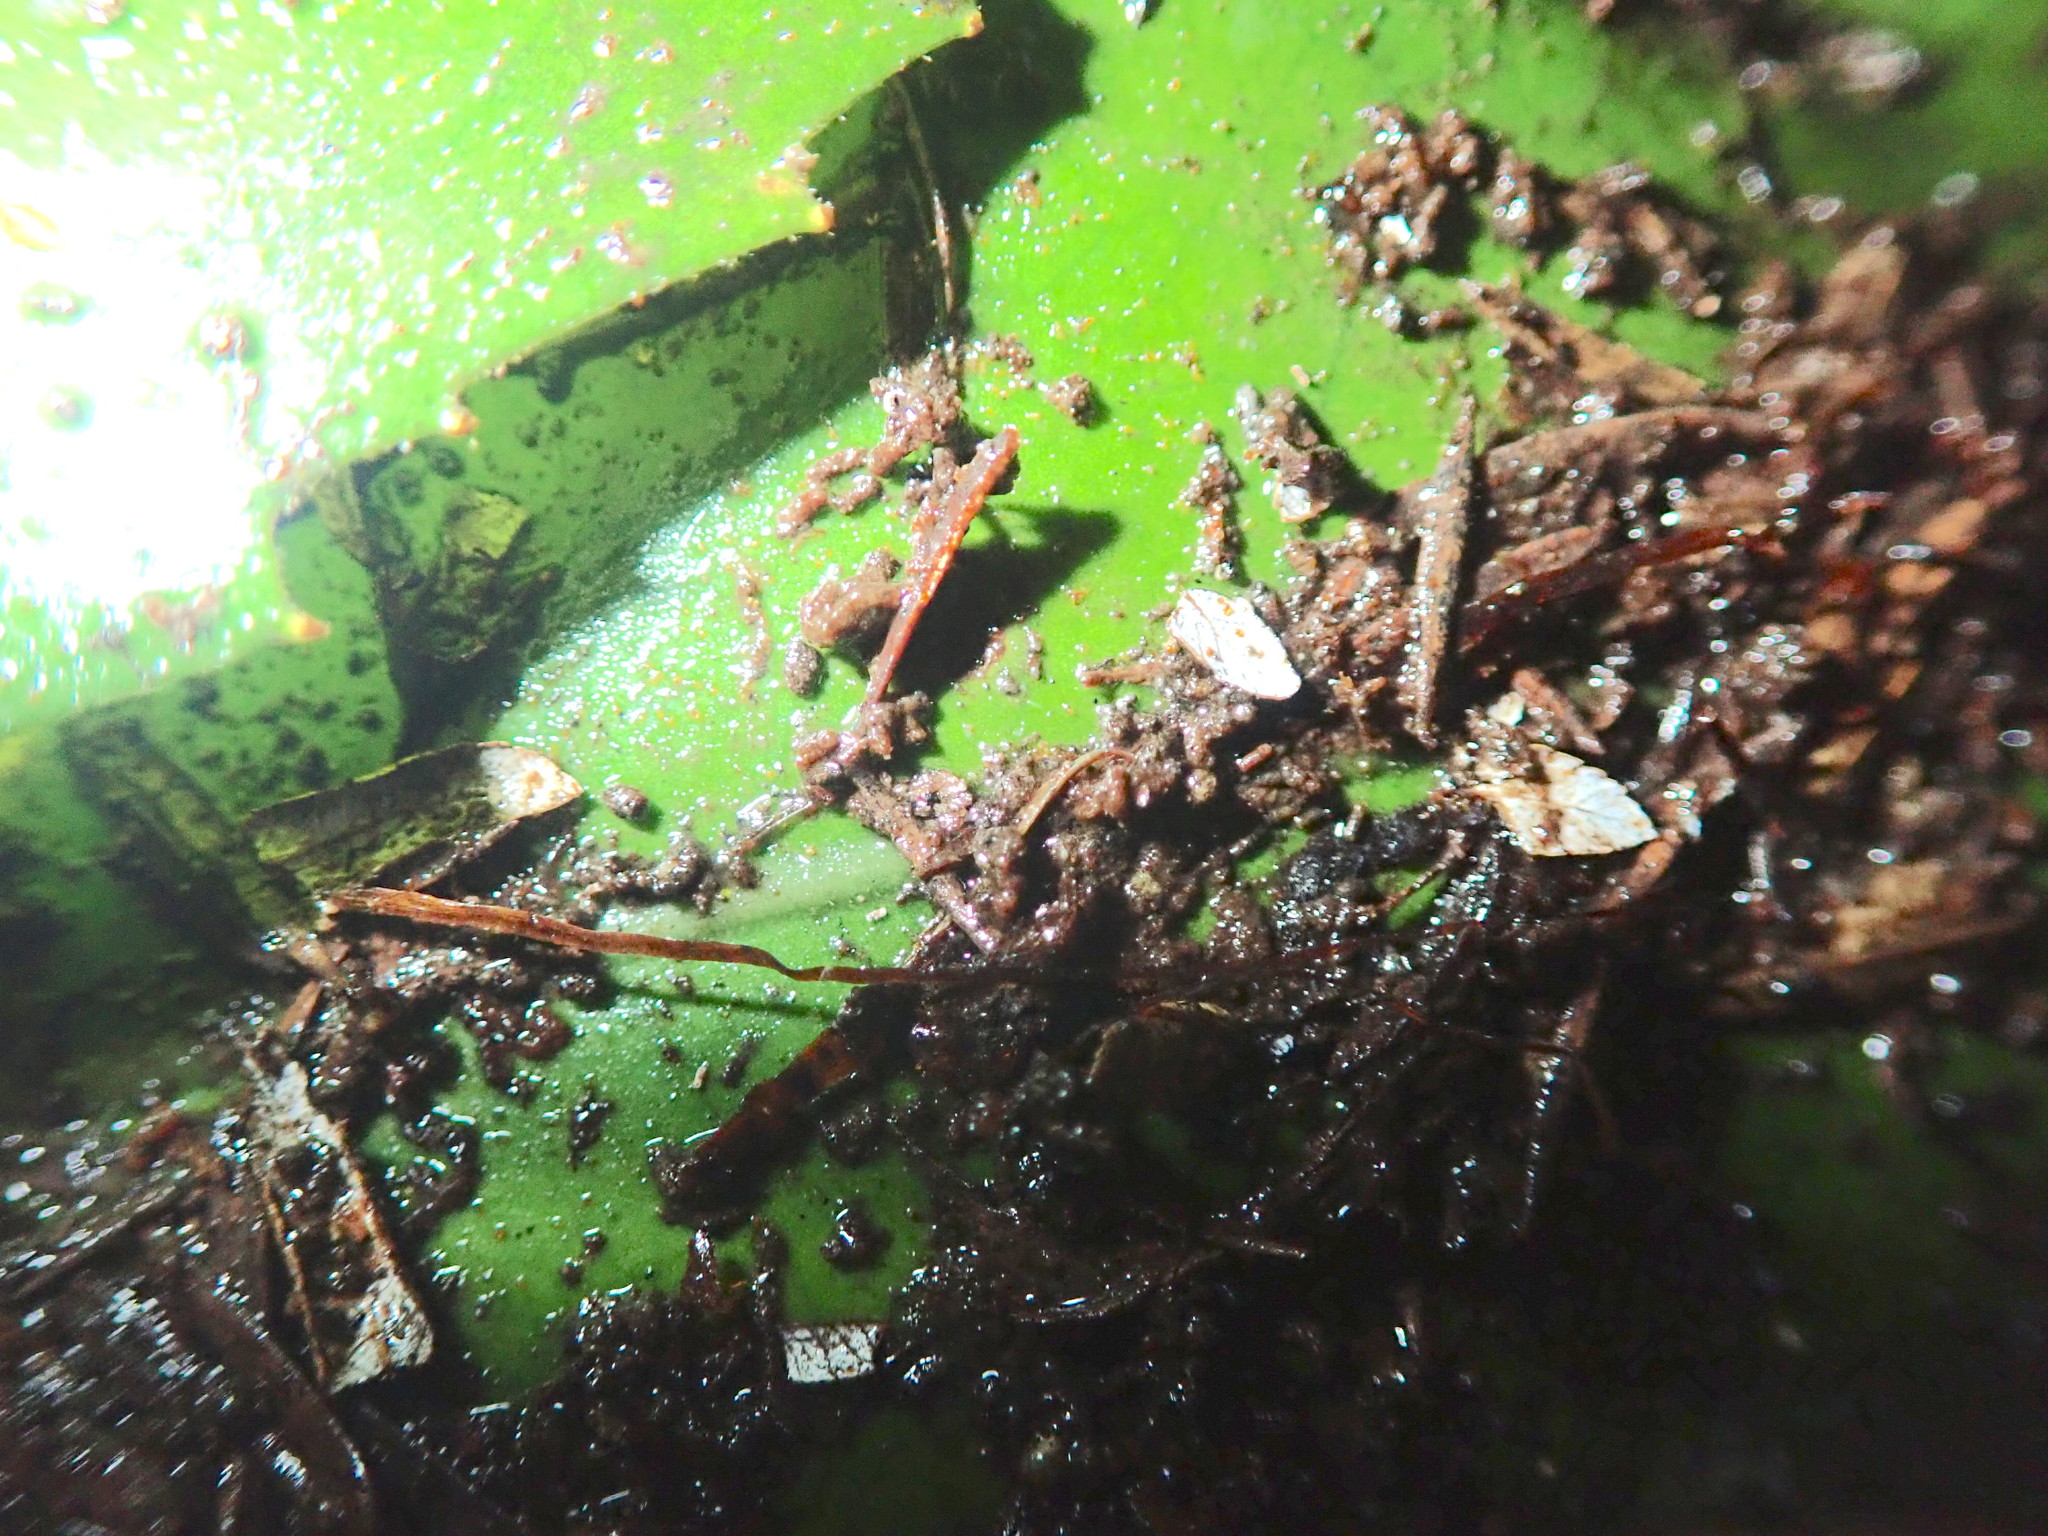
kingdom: Plantae
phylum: Tracheophyta
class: Magnoliopsida
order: Laurales
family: Monimiaceae
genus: Hedycarya
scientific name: Hedycarya arborea
